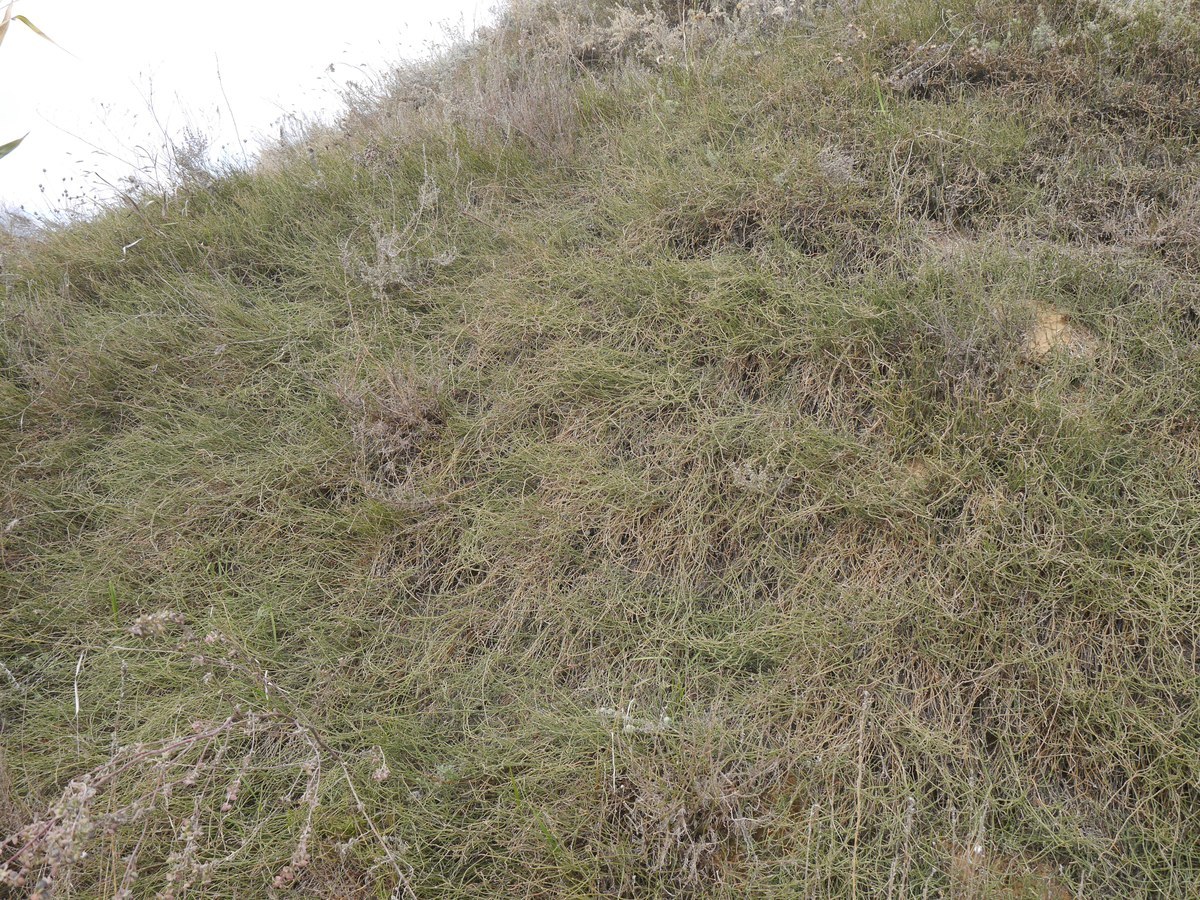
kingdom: Plantae
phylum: Tracheophyta
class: Gnetopsida
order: Ephedrales
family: Ephedraceae
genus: Ephedra
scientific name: Ephedra distachya
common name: Sea grape
